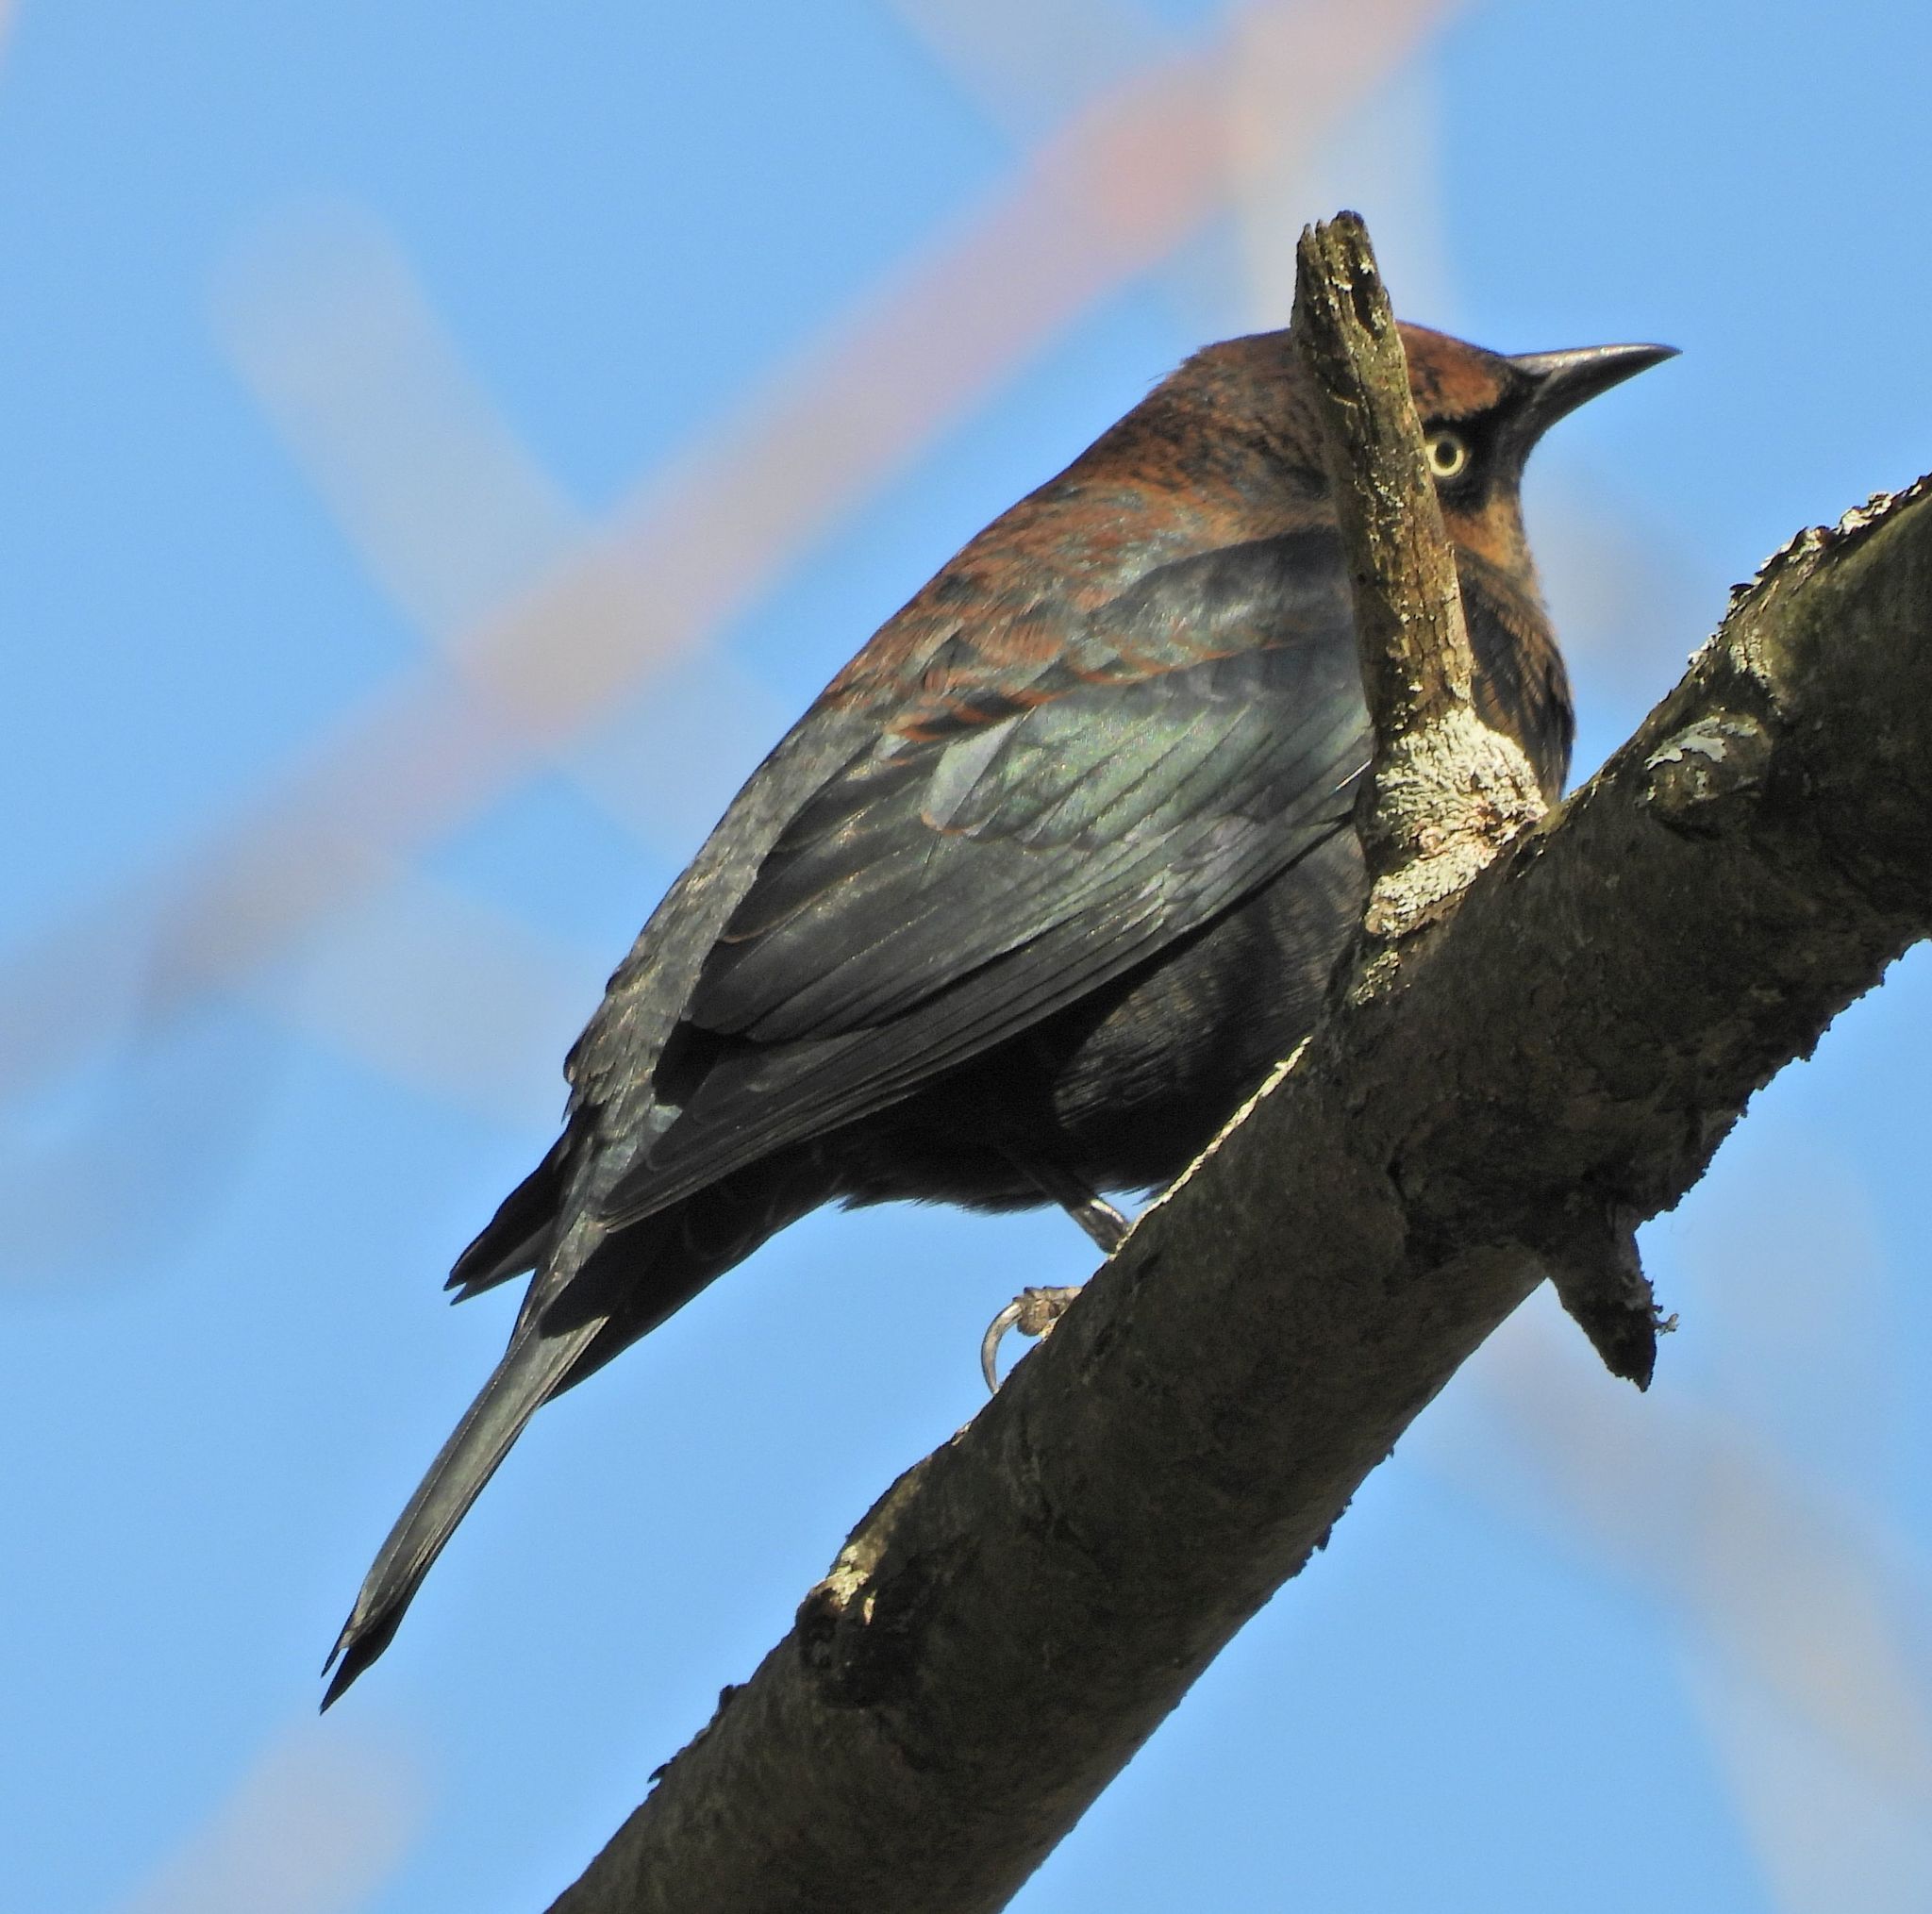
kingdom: Animalia
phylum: Chordata
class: Aves
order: Passeriformes
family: Icteridae
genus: Euphagus
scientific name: Euphagus carolinus
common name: Rusty blackbird
